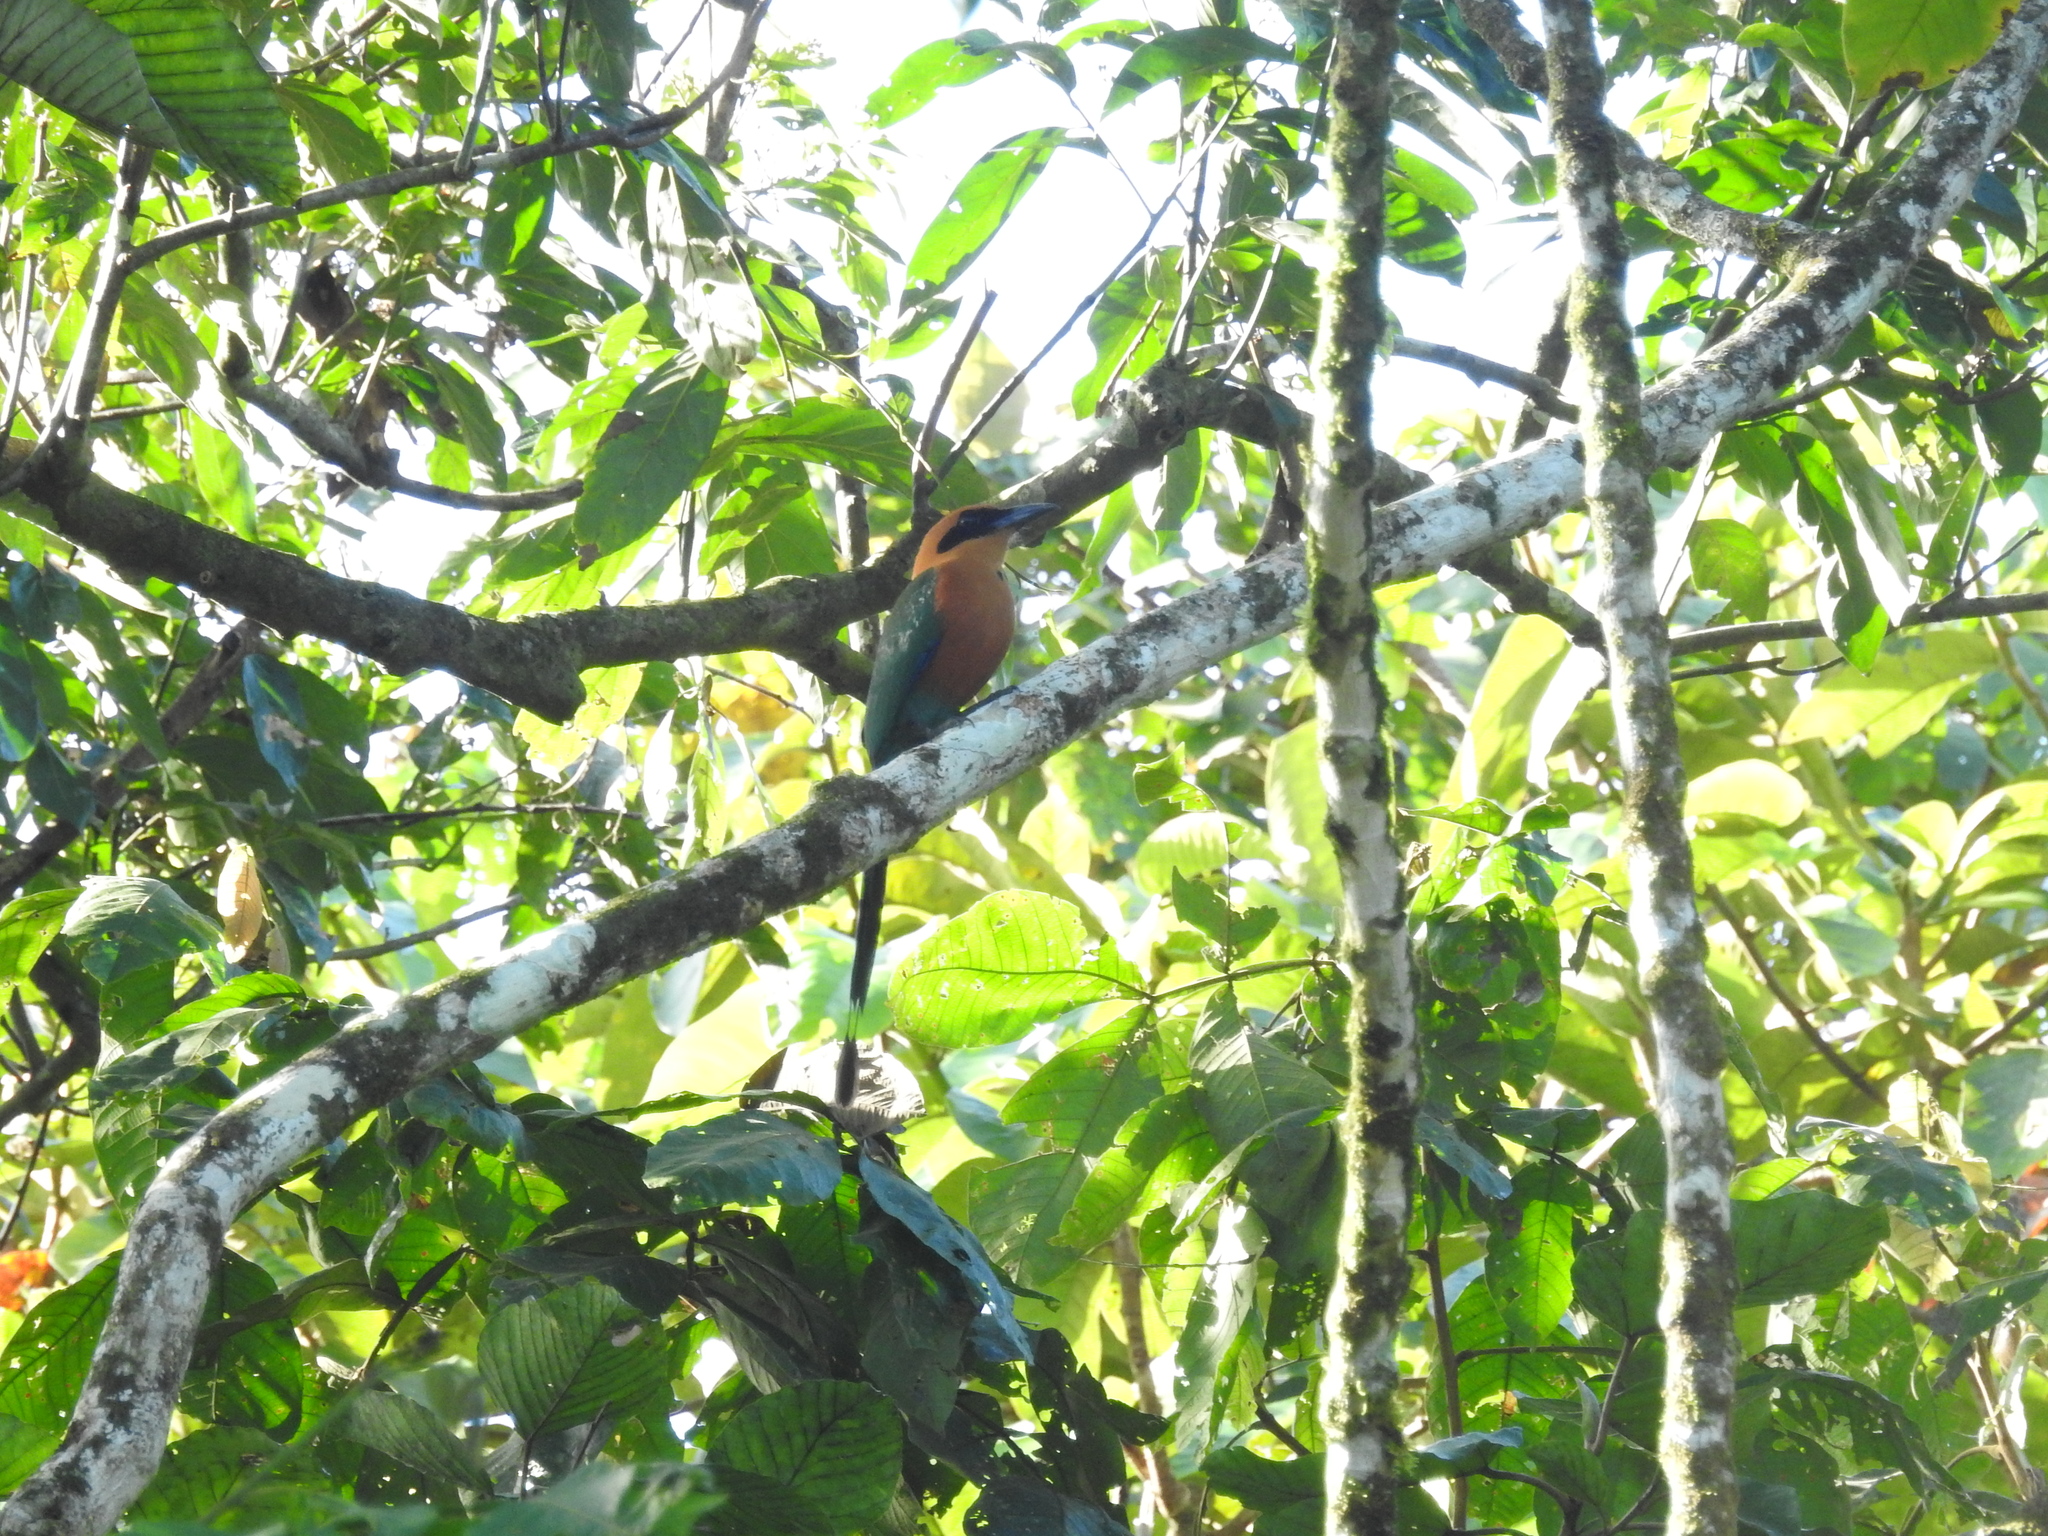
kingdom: Animalia
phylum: Chordata
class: Aves
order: Coraciiformes
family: Momotidae
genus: Baryphthengus
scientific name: Baryphthengus martii
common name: Rufous motmot
